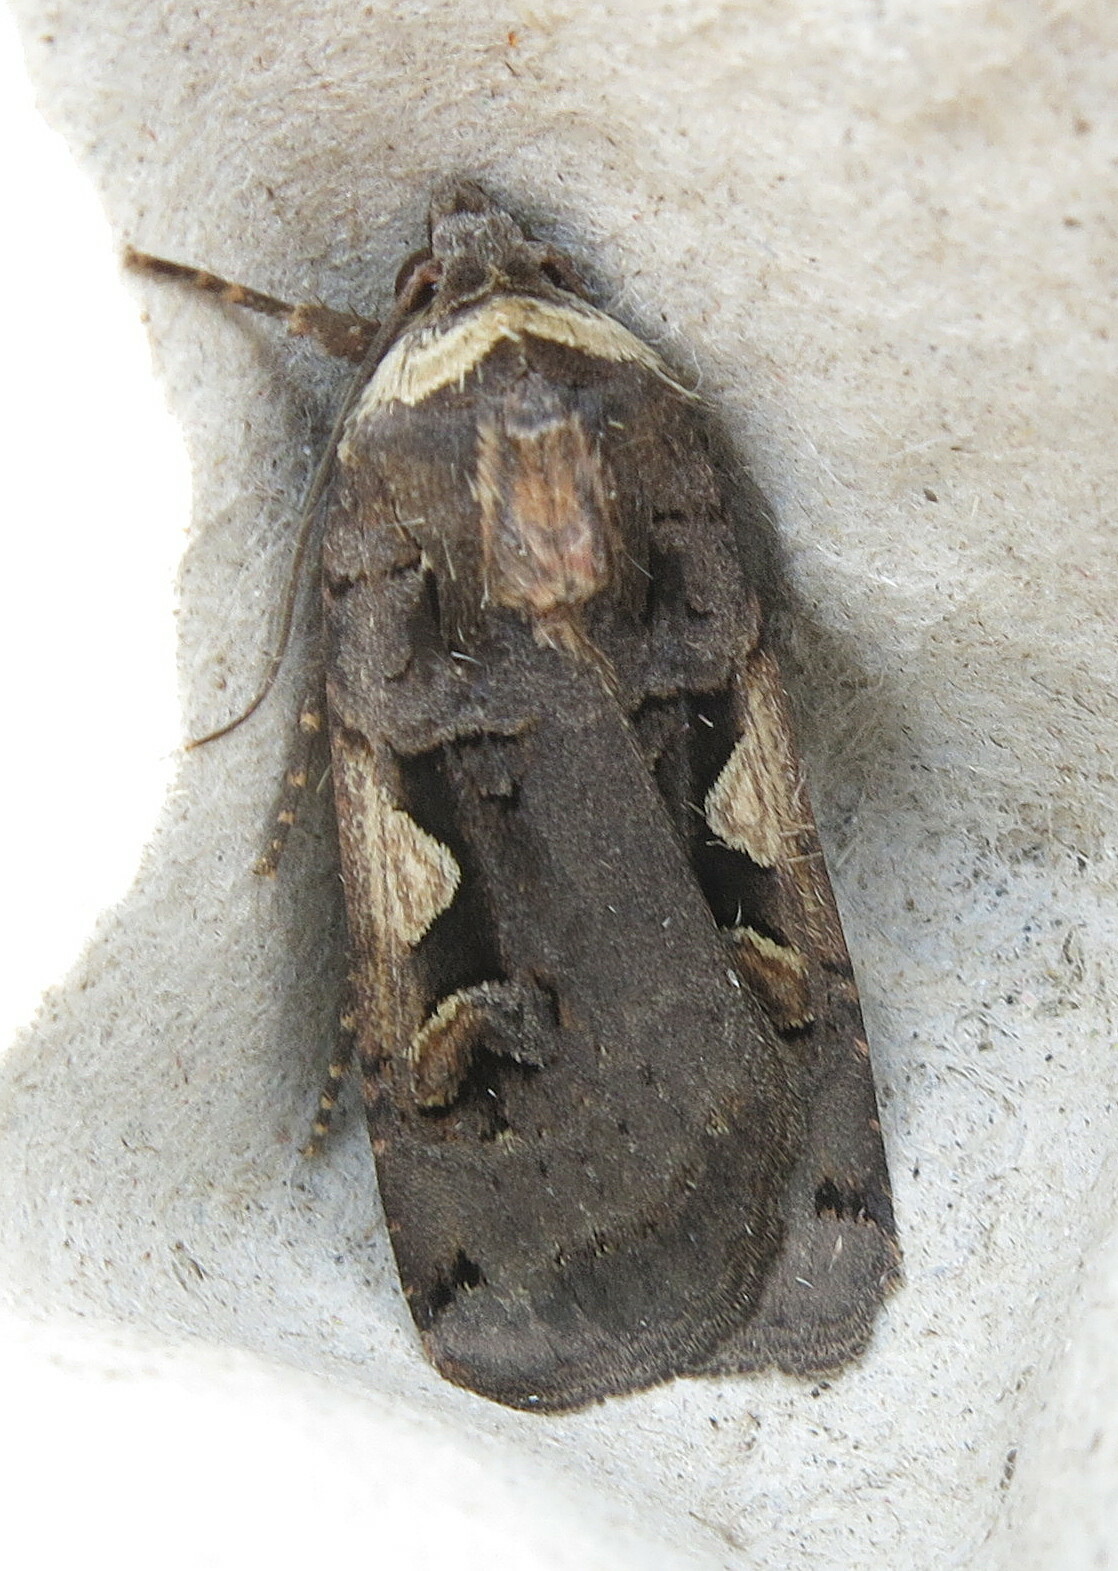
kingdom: Animalia
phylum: Arthropoda
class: Insecta
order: Lepidoptera
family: Noctuidae
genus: Xestia
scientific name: Xestia c-nigrum
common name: Setaceous hebrew character
